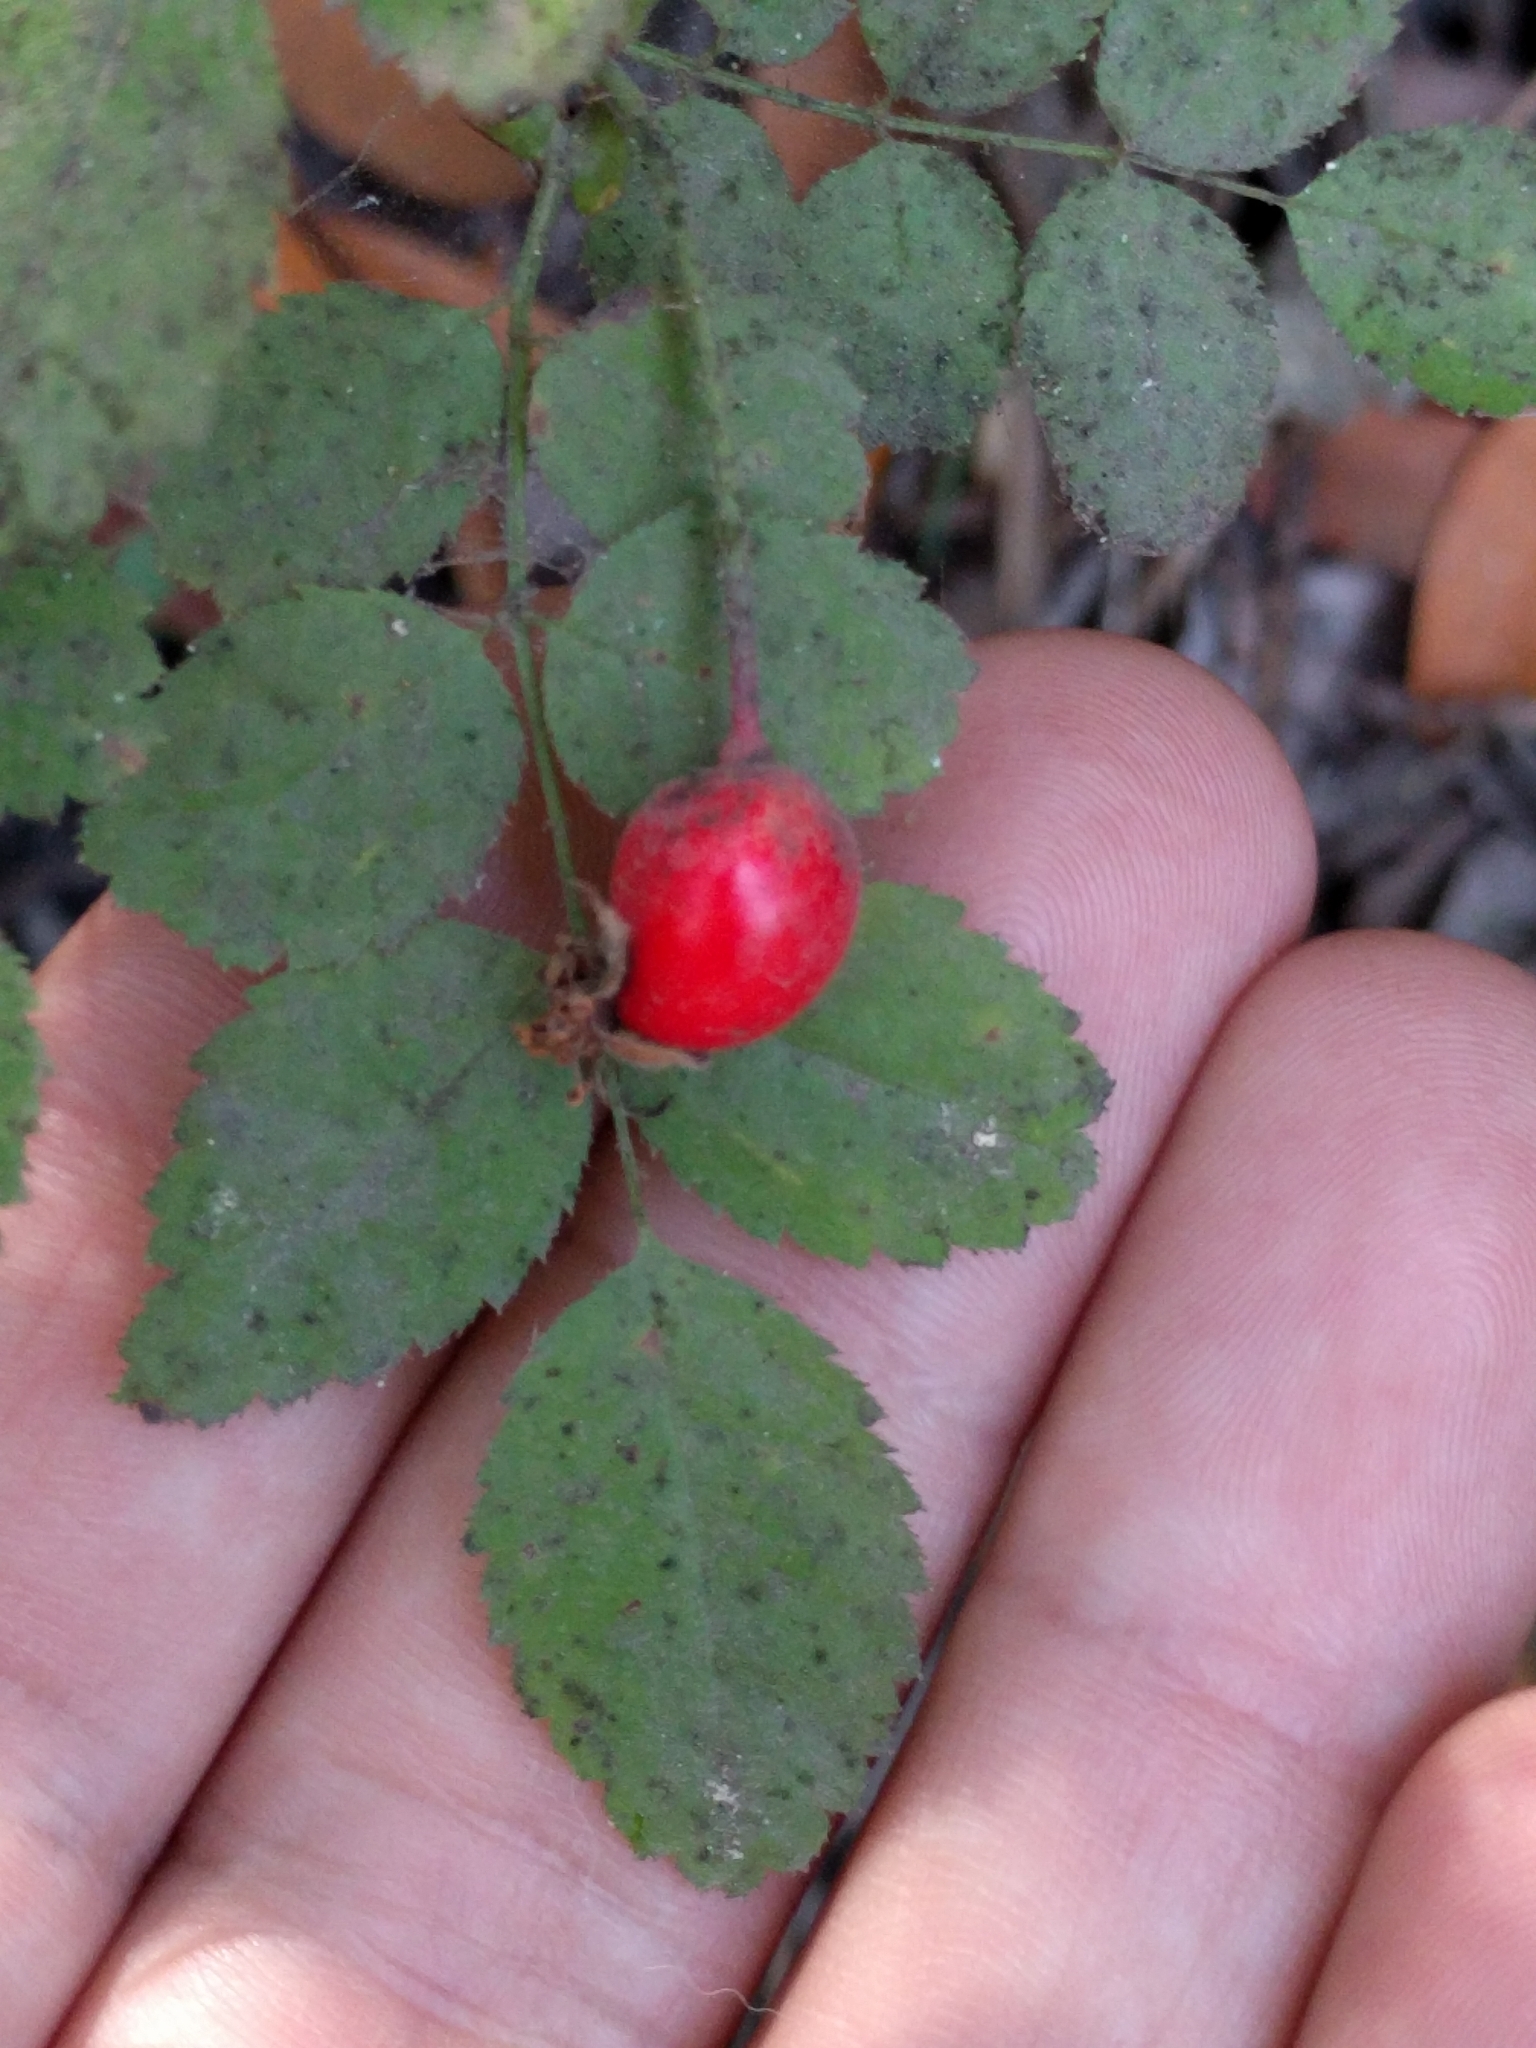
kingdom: Plantae
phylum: Tracheophyta
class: Magnoliopsida
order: Rosales
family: Rosaceae
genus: Rosa
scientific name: Rosa gymnocarpa
